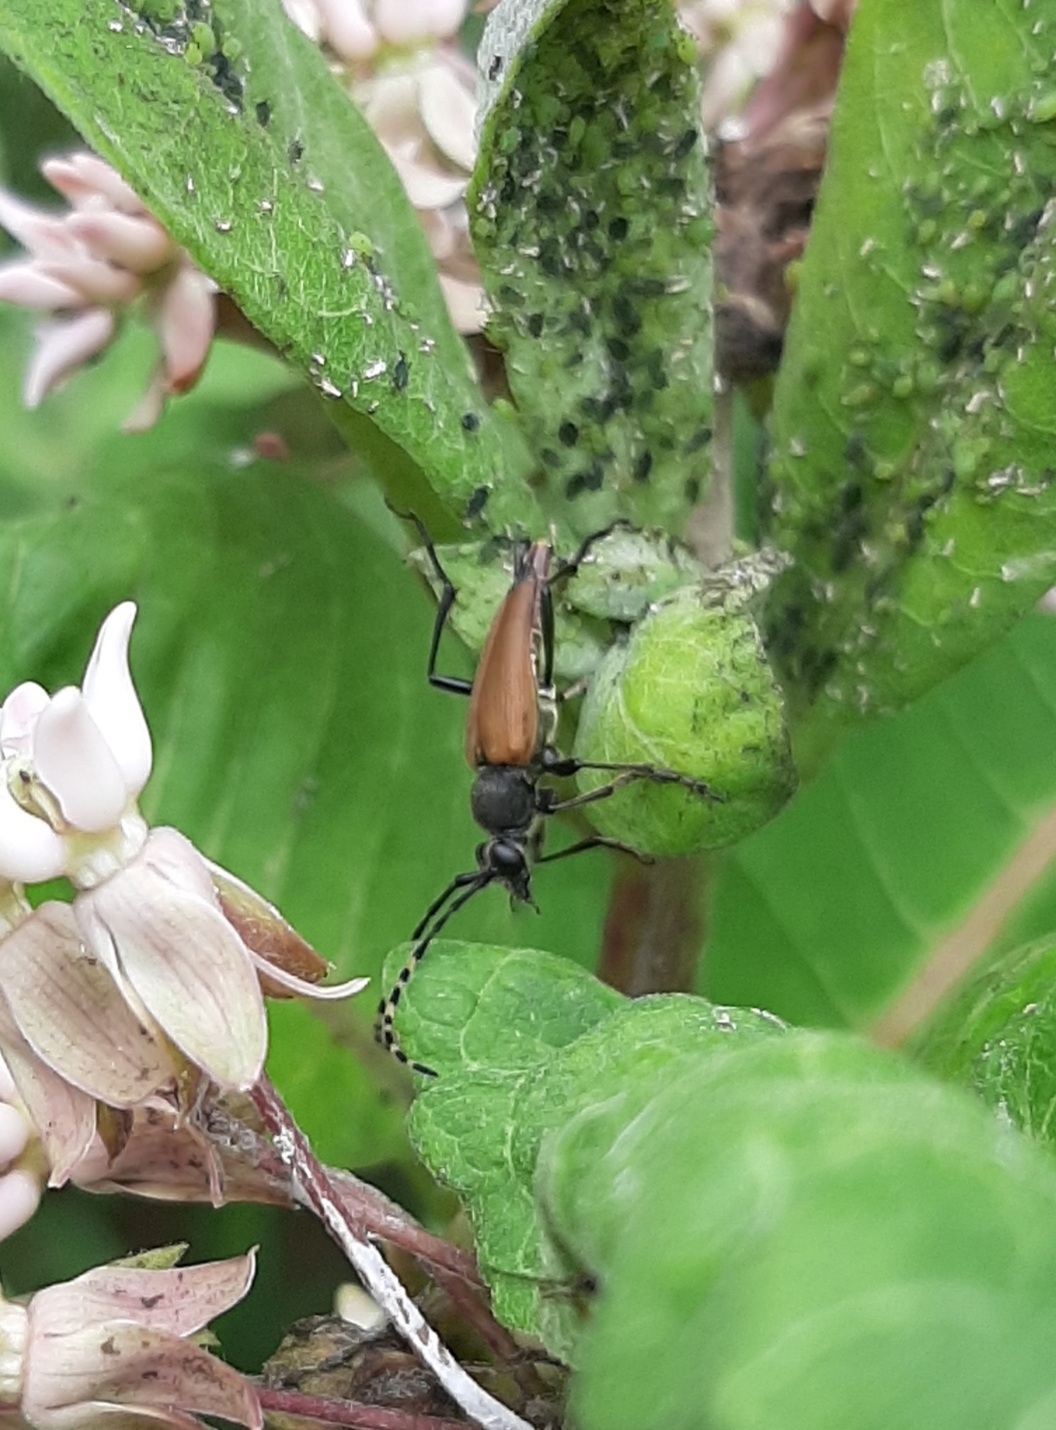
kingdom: Animalia
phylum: Arthropoda
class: Insecta
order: Coleoptera
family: Cerambycidae
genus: Brachyleptura
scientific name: Brachyleptura rubrica
